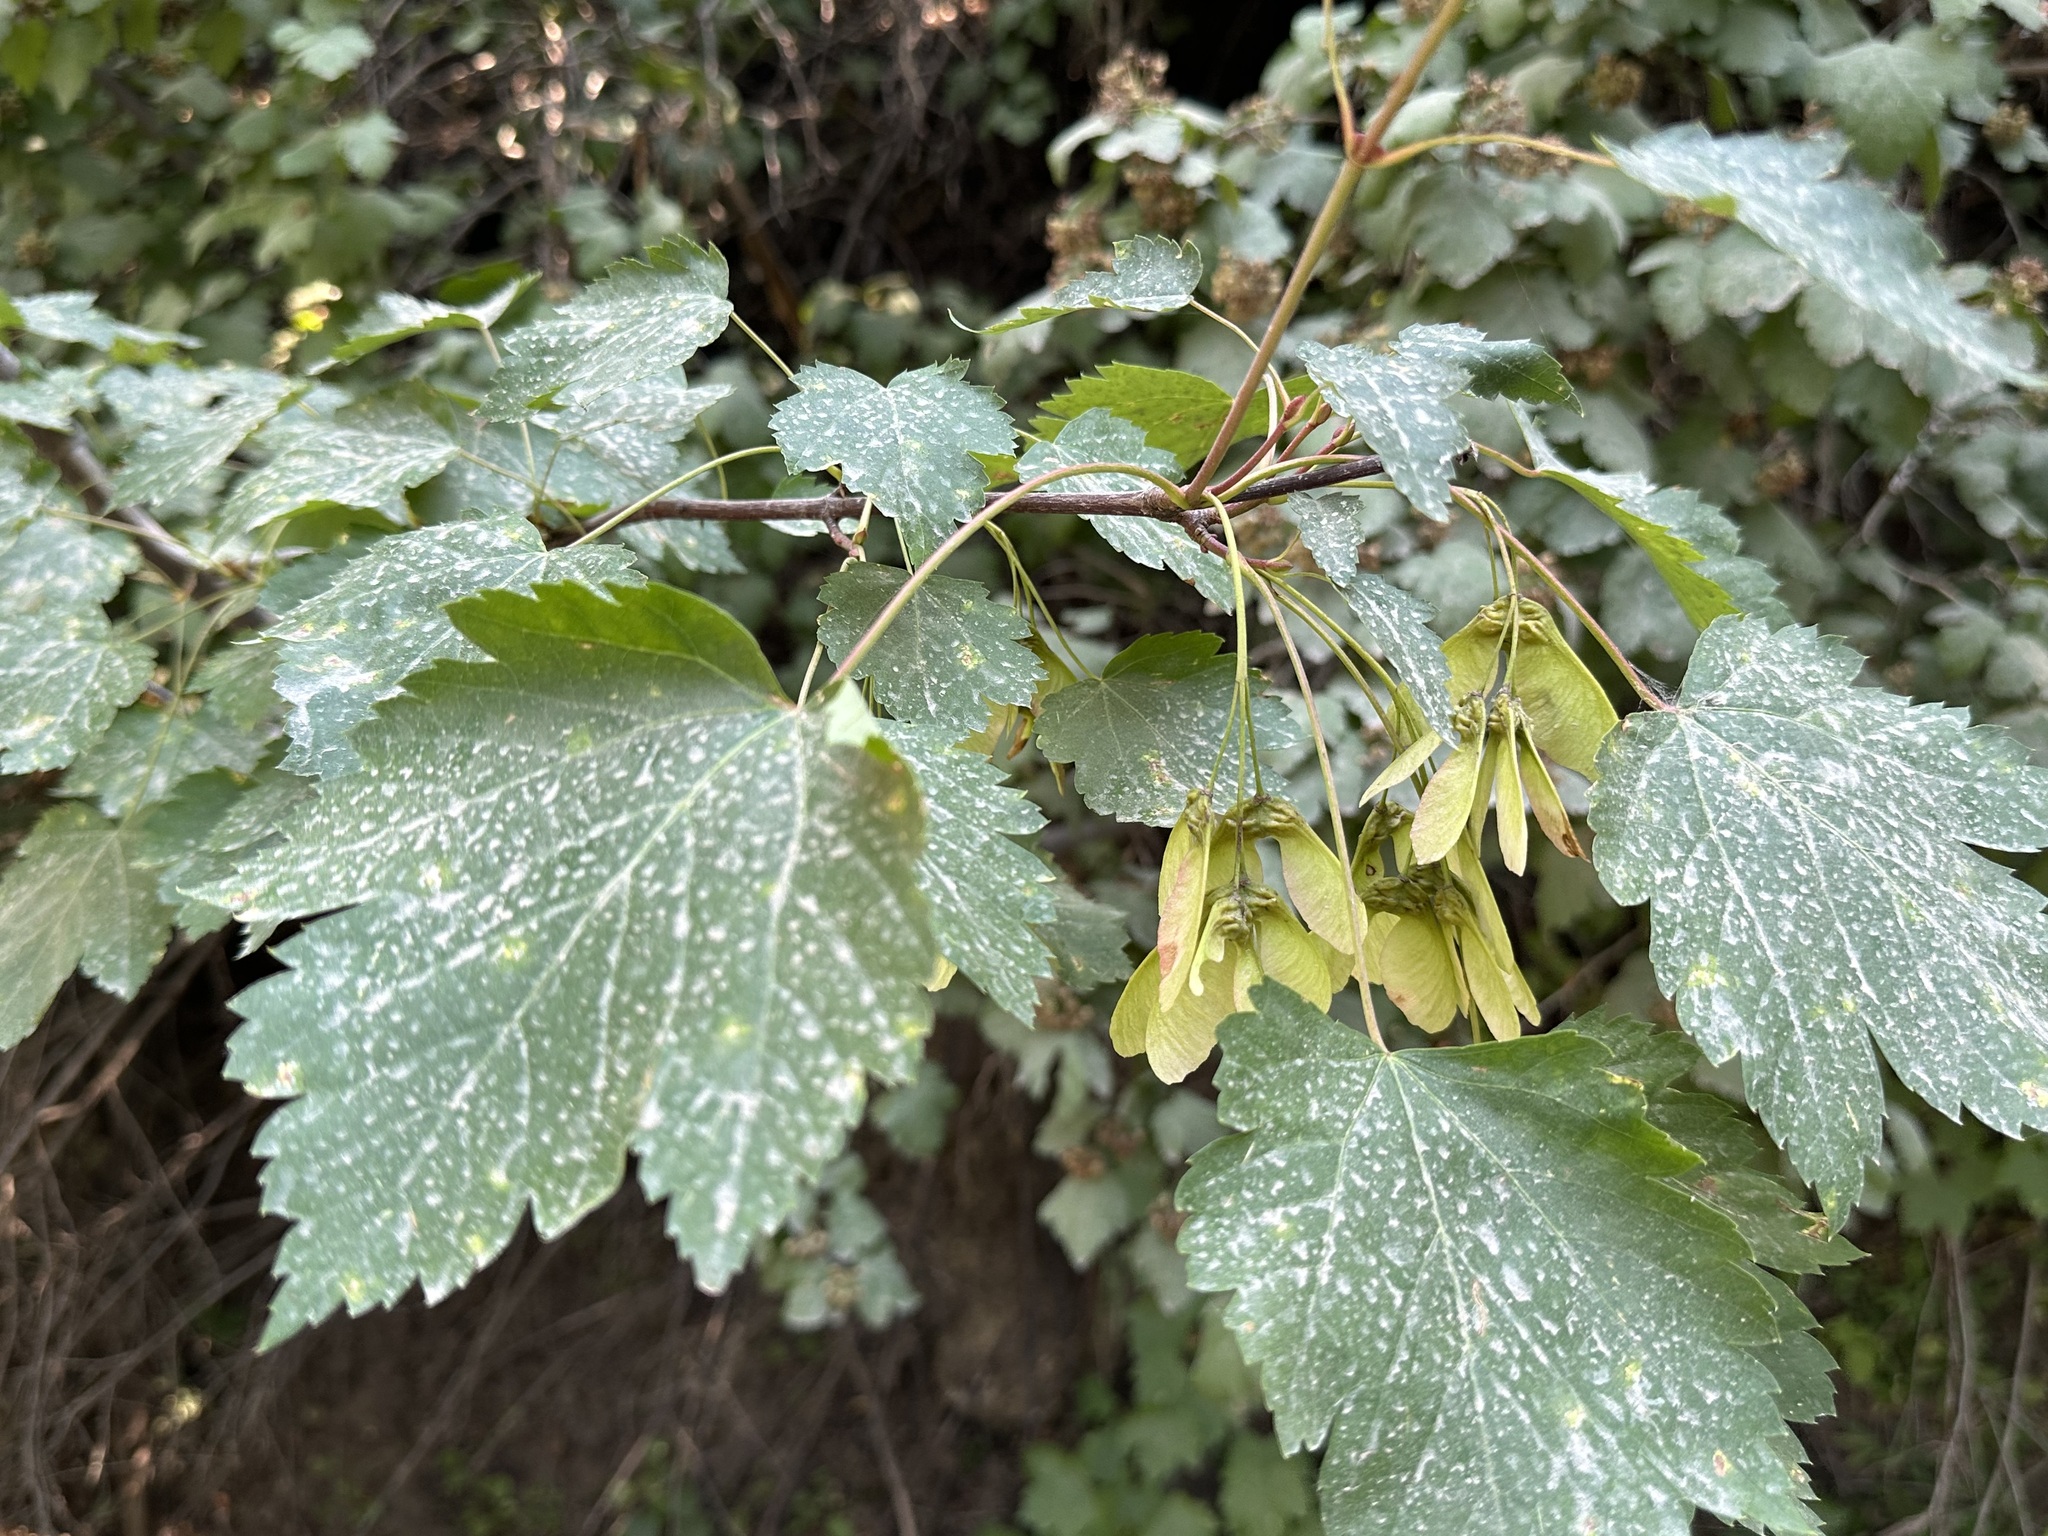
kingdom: Plantae
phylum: Tracheophyta
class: Magnoliopsida
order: Sapindales
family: Sapindaceae
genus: Acer
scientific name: Acer glabrum
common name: Rocky mountain maple
